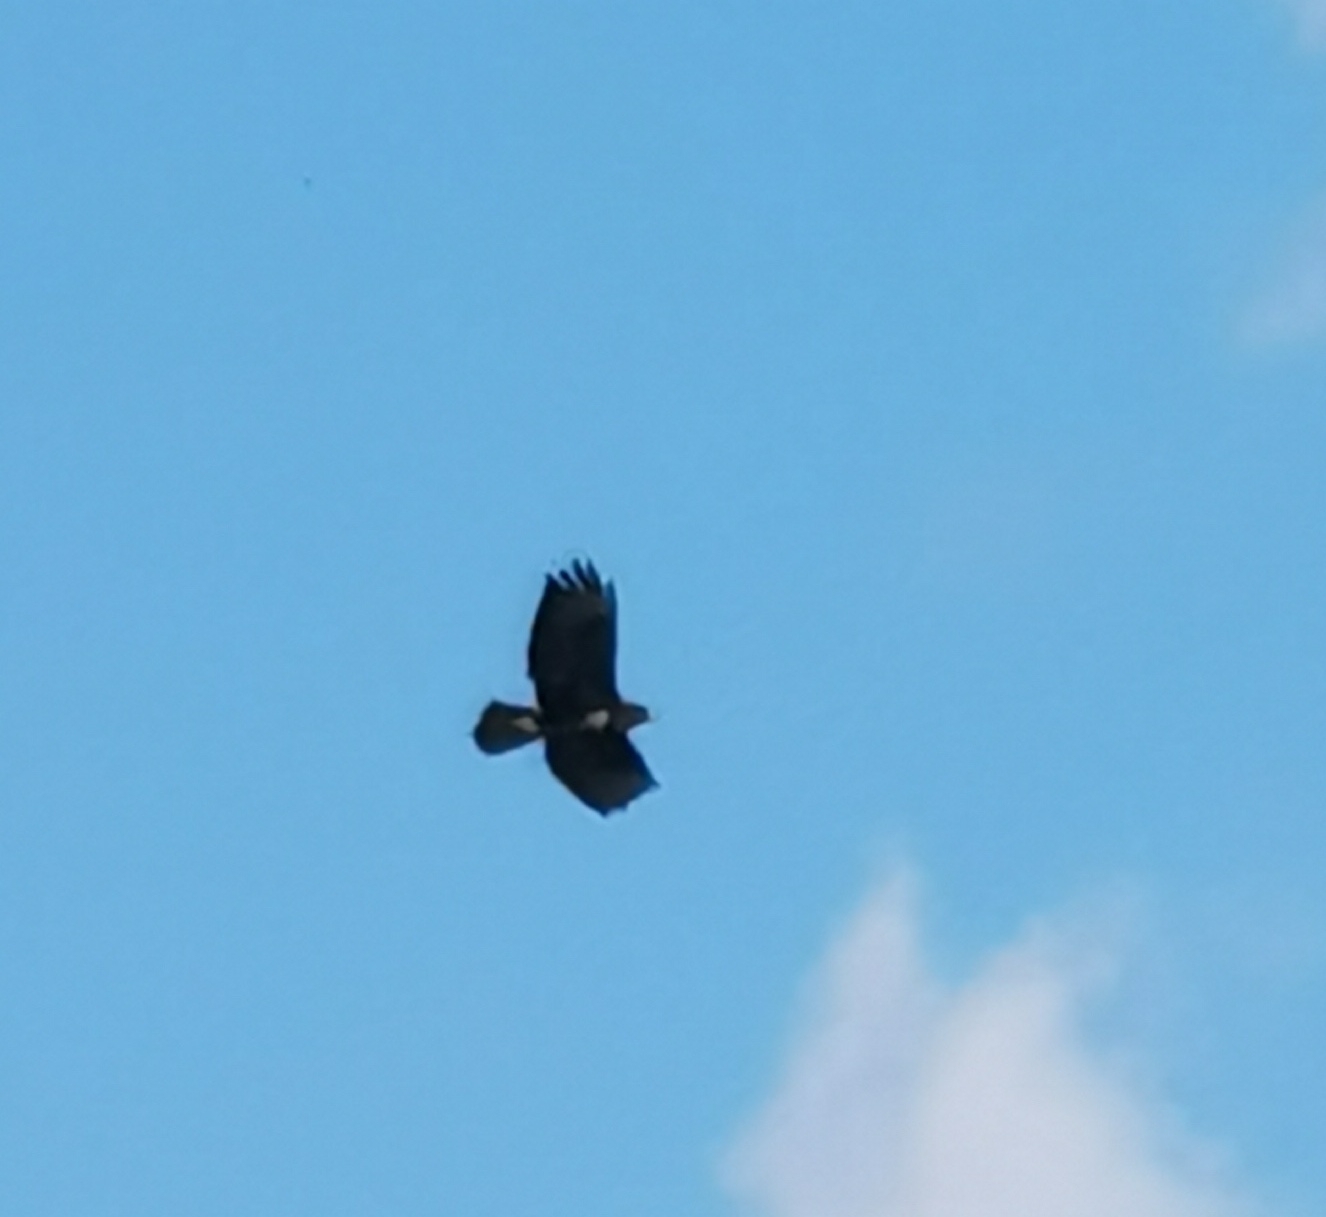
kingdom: Animalia
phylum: Chordata
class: Aves
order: Accipitriformes
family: Accipitridae
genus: Buteo
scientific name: Buteo buteo
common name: Common buzzard
